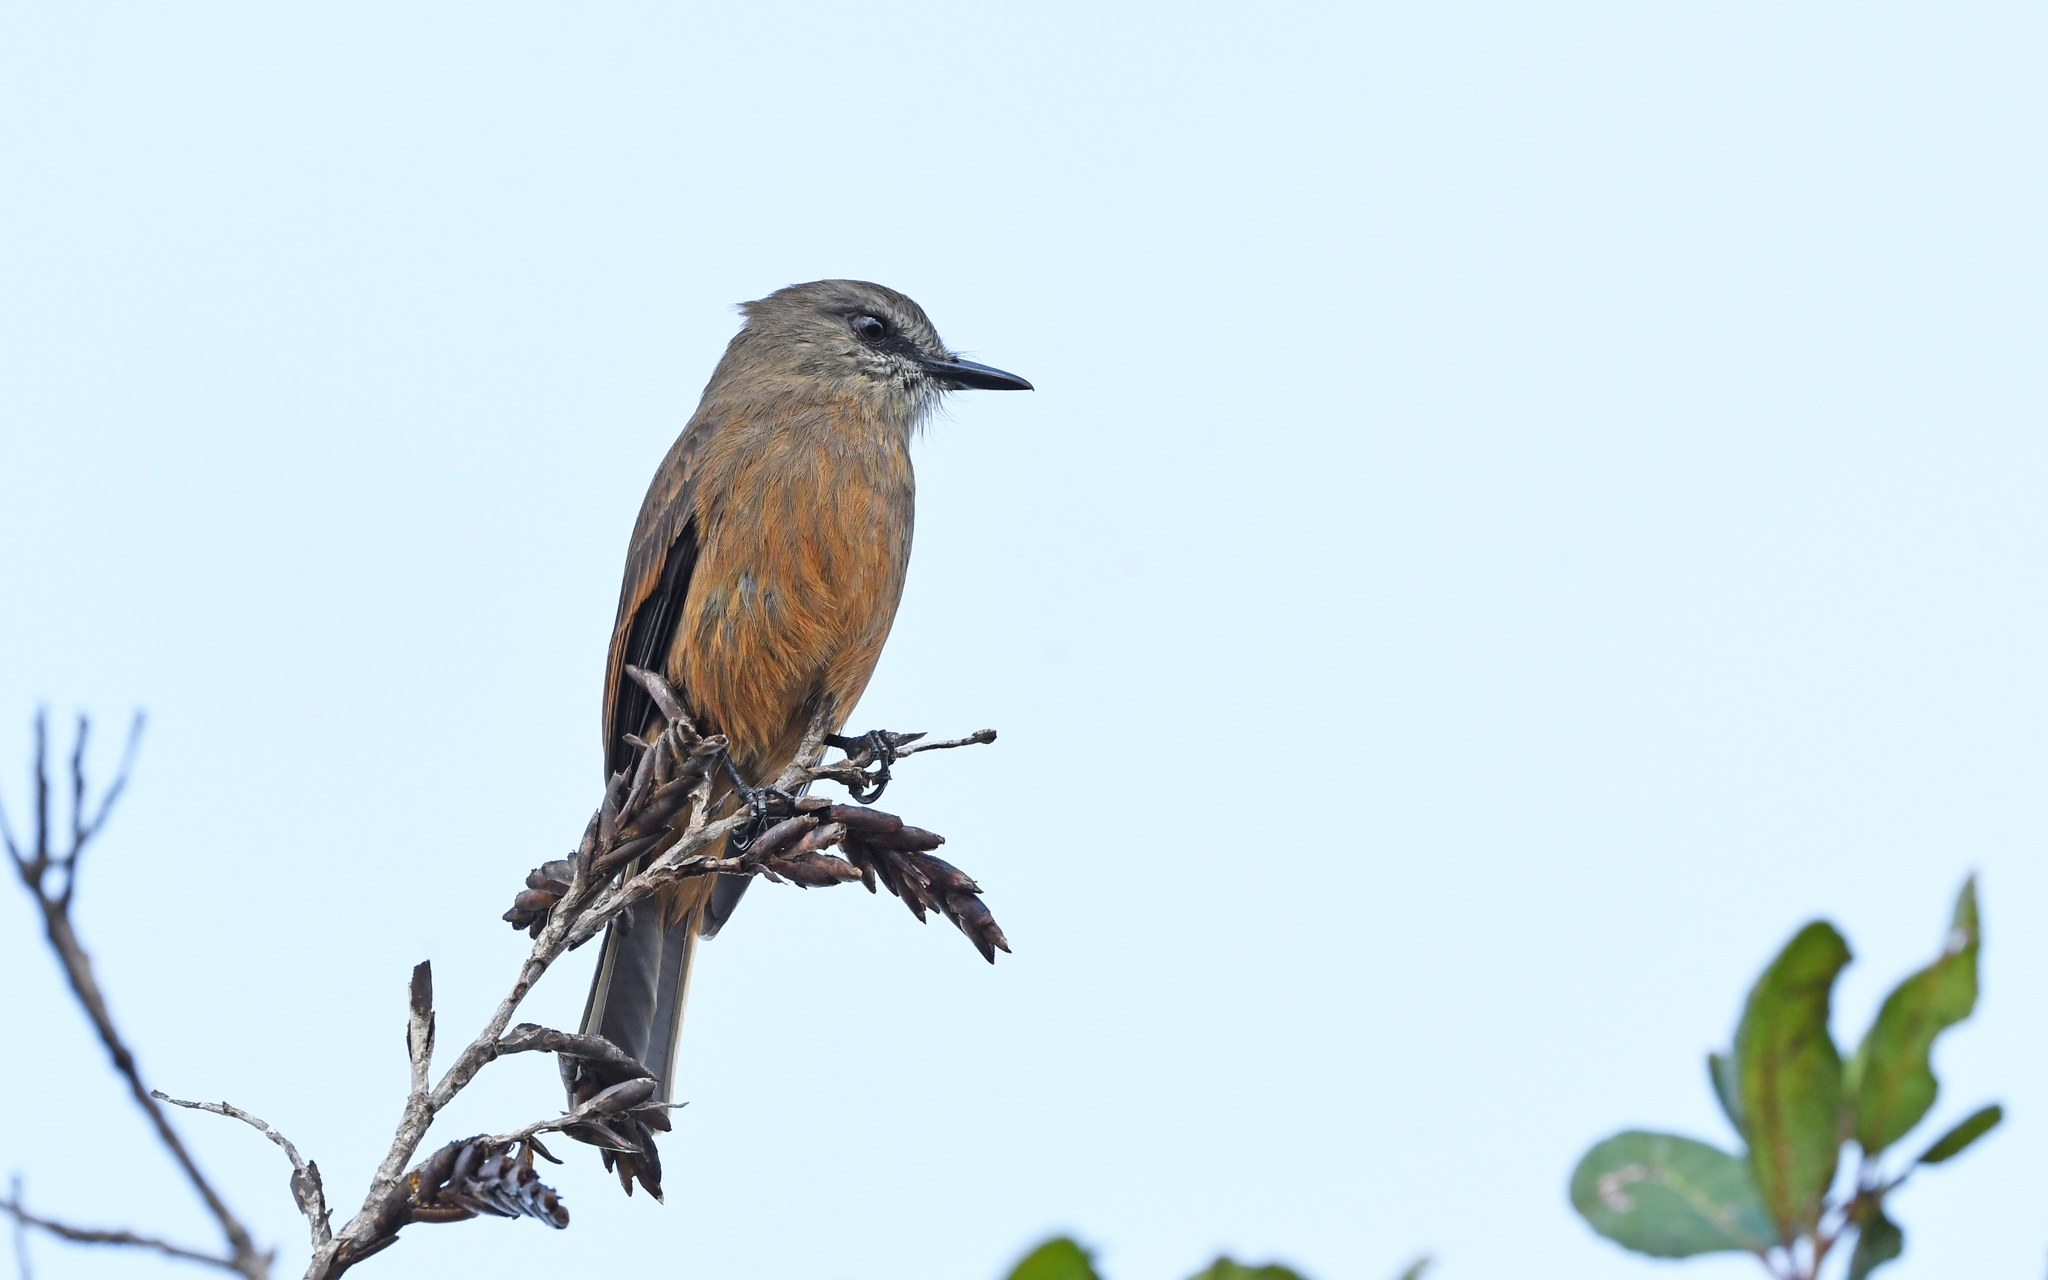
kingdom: Animalia
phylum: Chordata
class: Aves
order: Passeriformes
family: Tyrannidae
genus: Myiotheretes
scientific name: Myiotheretes pernix
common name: Santa marta bush tyrant
